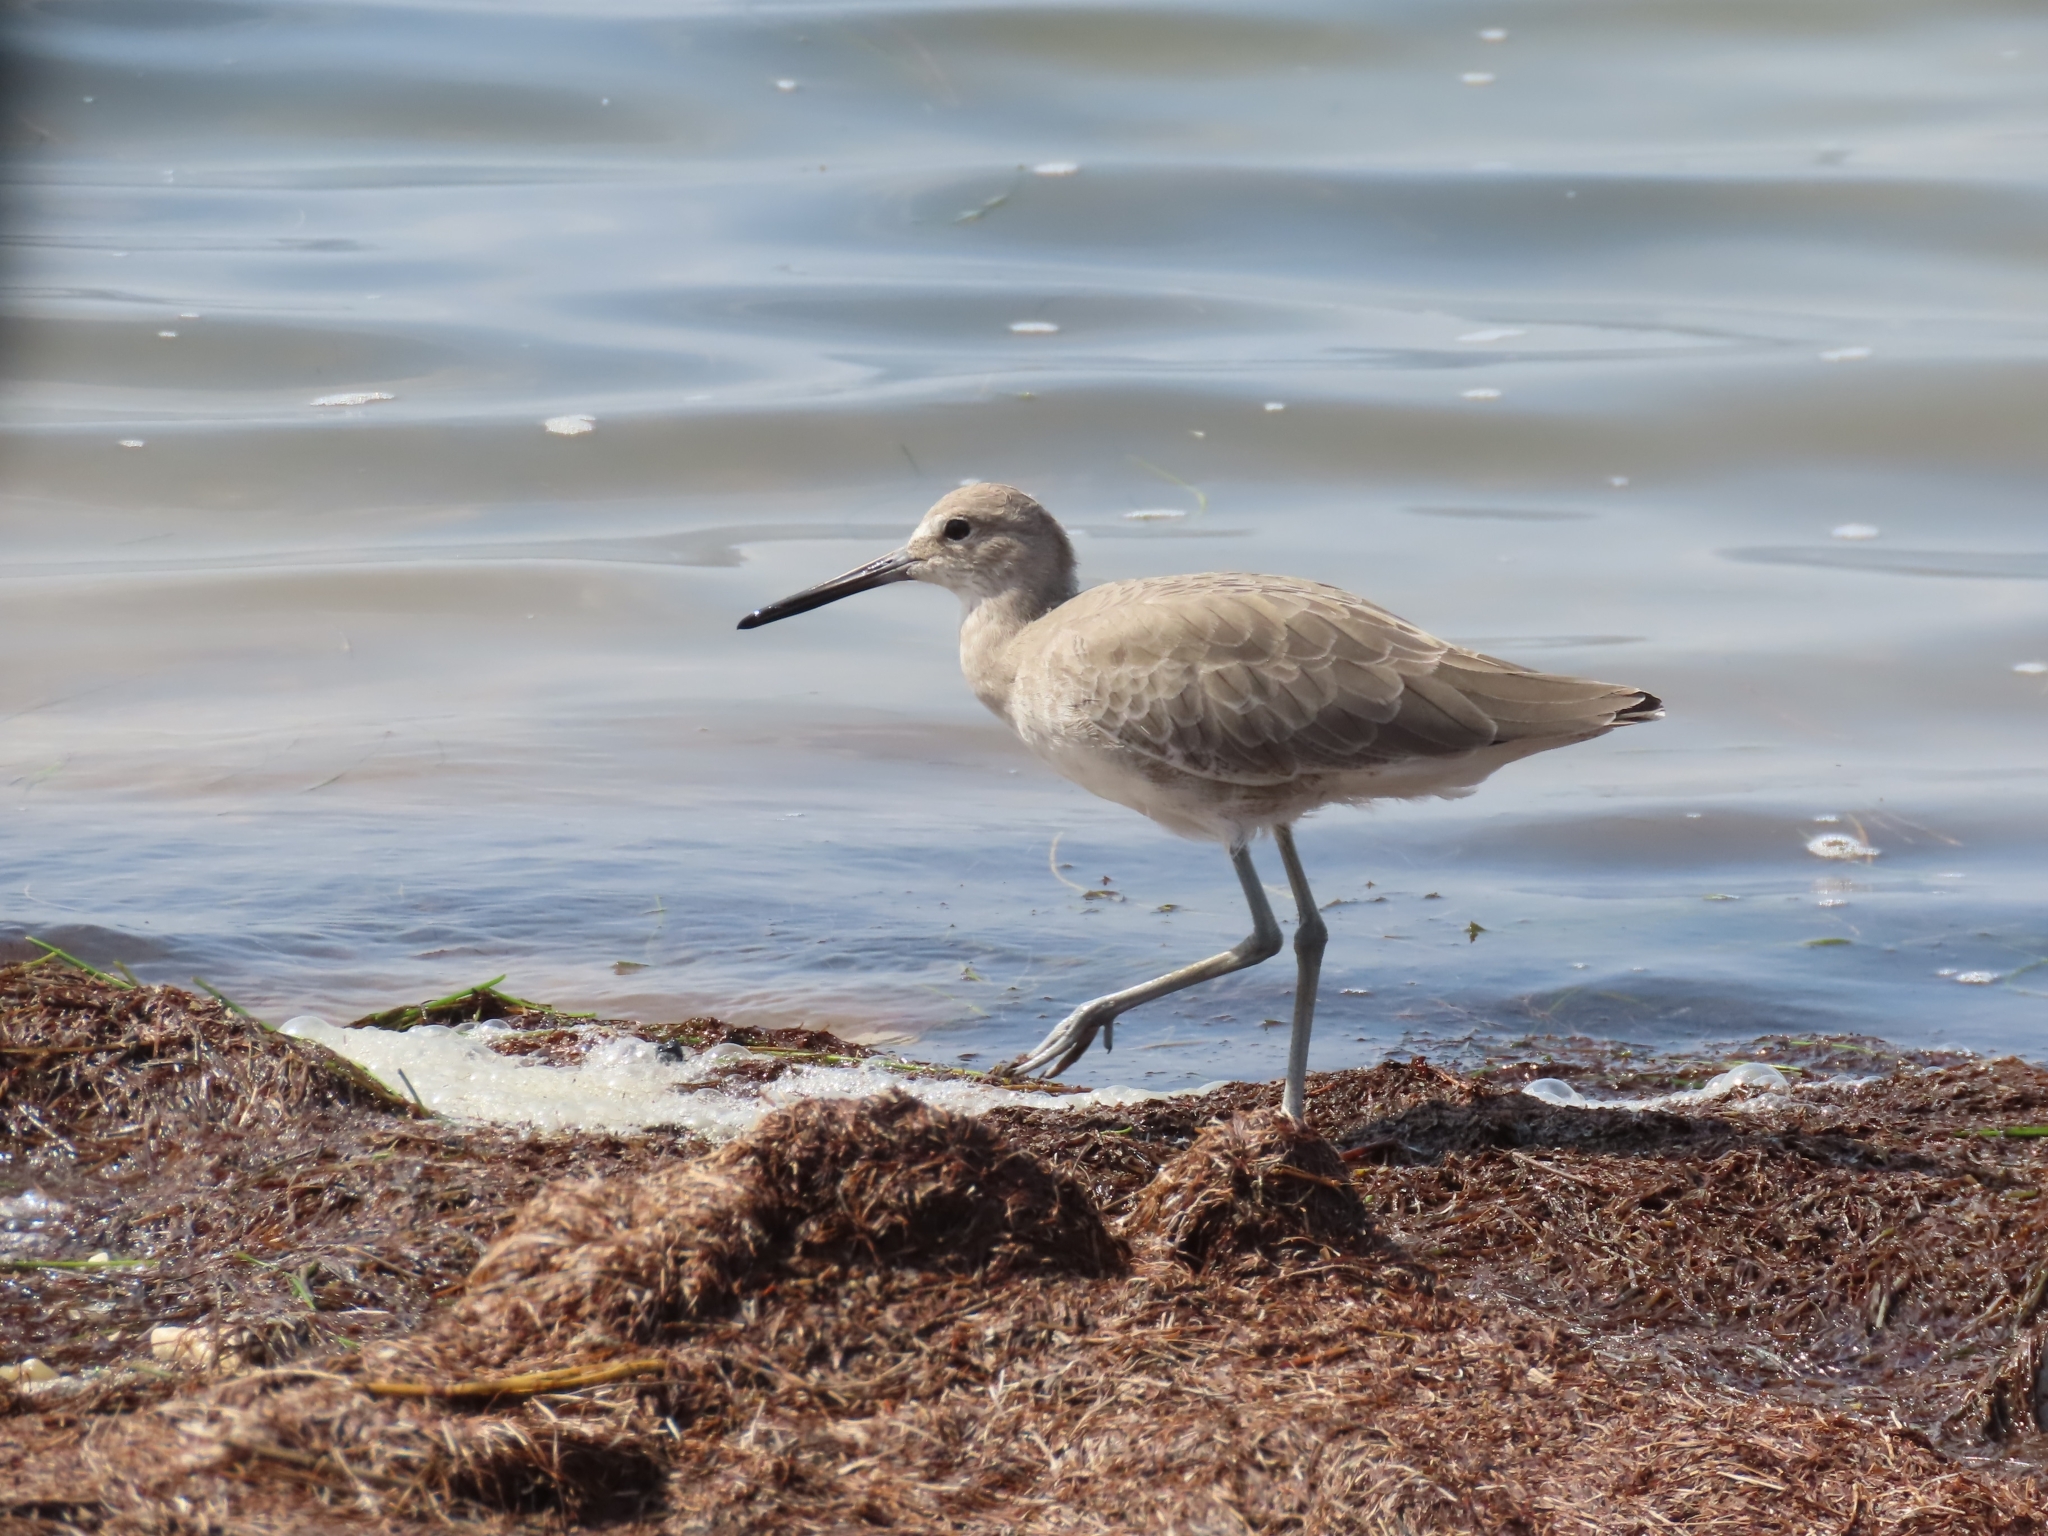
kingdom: Animalia
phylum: Chordata
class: Aves
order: Charadriiformes
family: Scolopacidae
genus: Tringa
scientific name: Tringa semipalmata
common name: Willet
